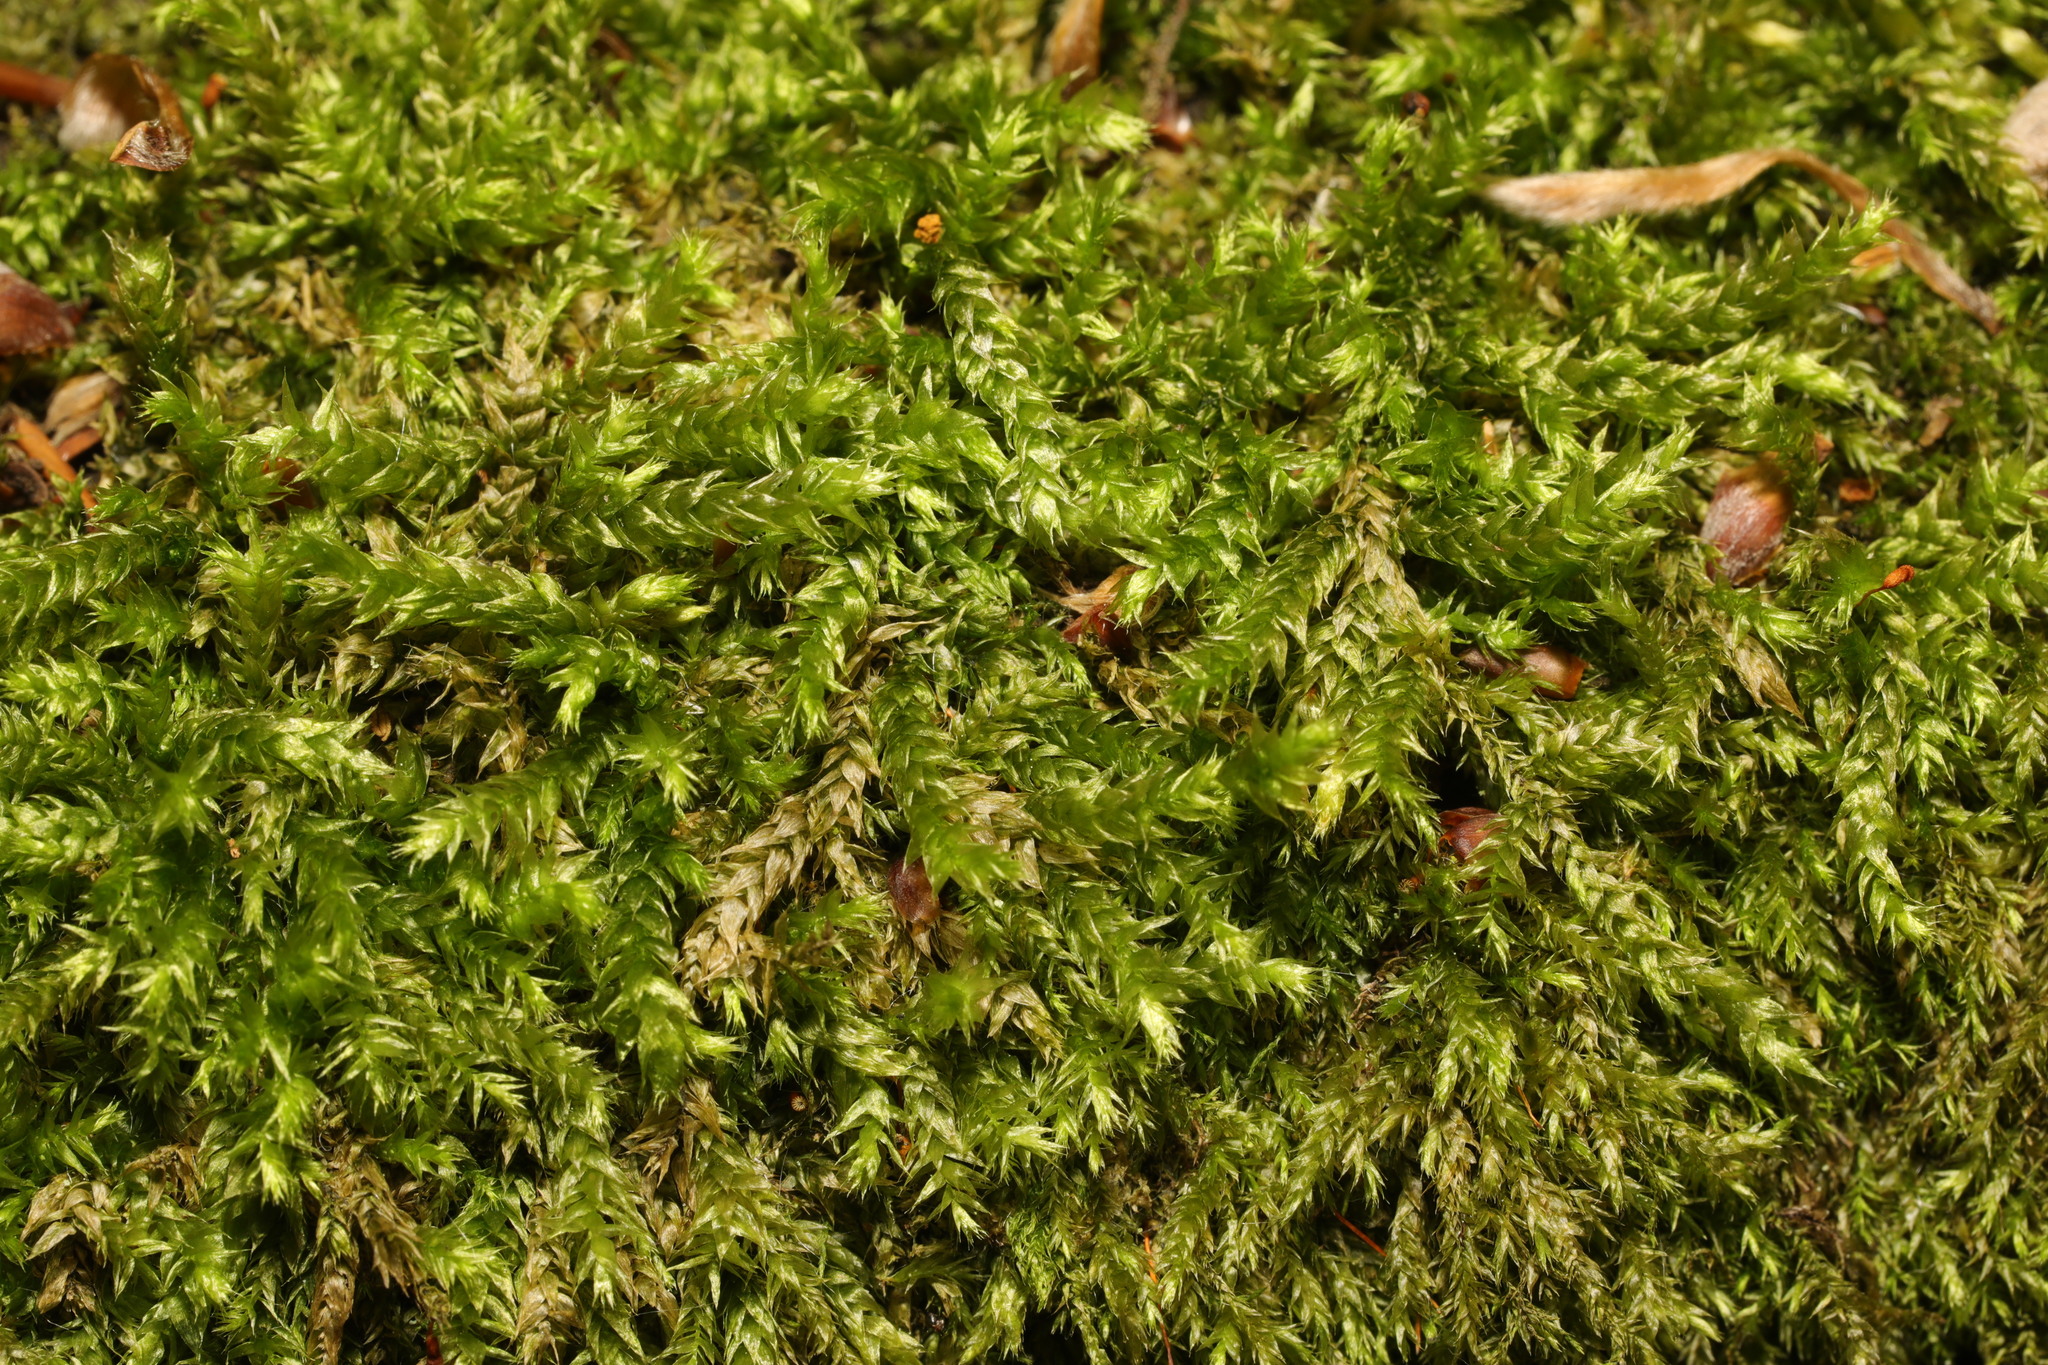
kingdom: Plantae
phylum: Bryophyta
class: Bryopsida
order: Hypnales
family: Brachytheciaceae
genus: Brachythecium
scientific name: Brachythecium rutabulum
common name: Rough-stalked feather-moss
